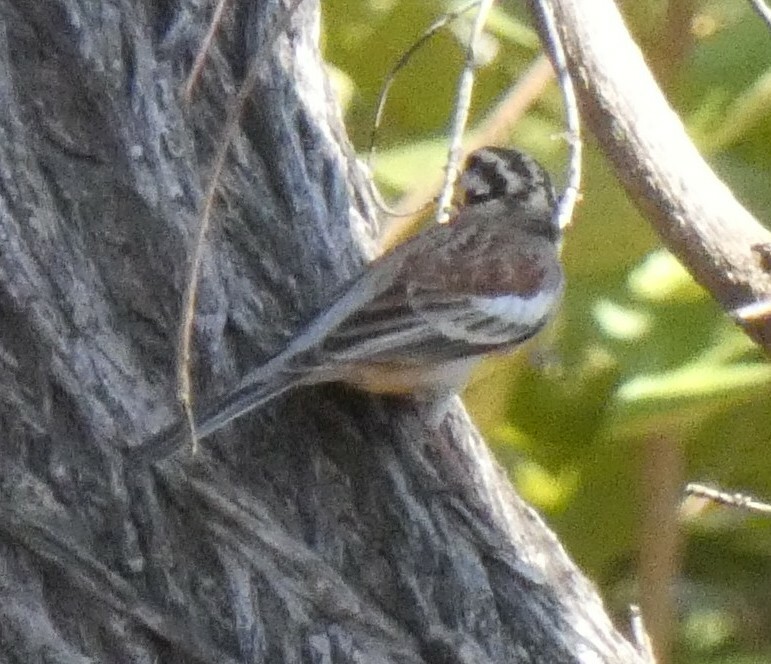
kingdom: Animalia
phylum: Chordata
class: Aves
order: Passeriformes
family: Emberizidae
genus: Emberiza
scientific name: Emberiza flaviventris
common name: Golden-breasted bunting
